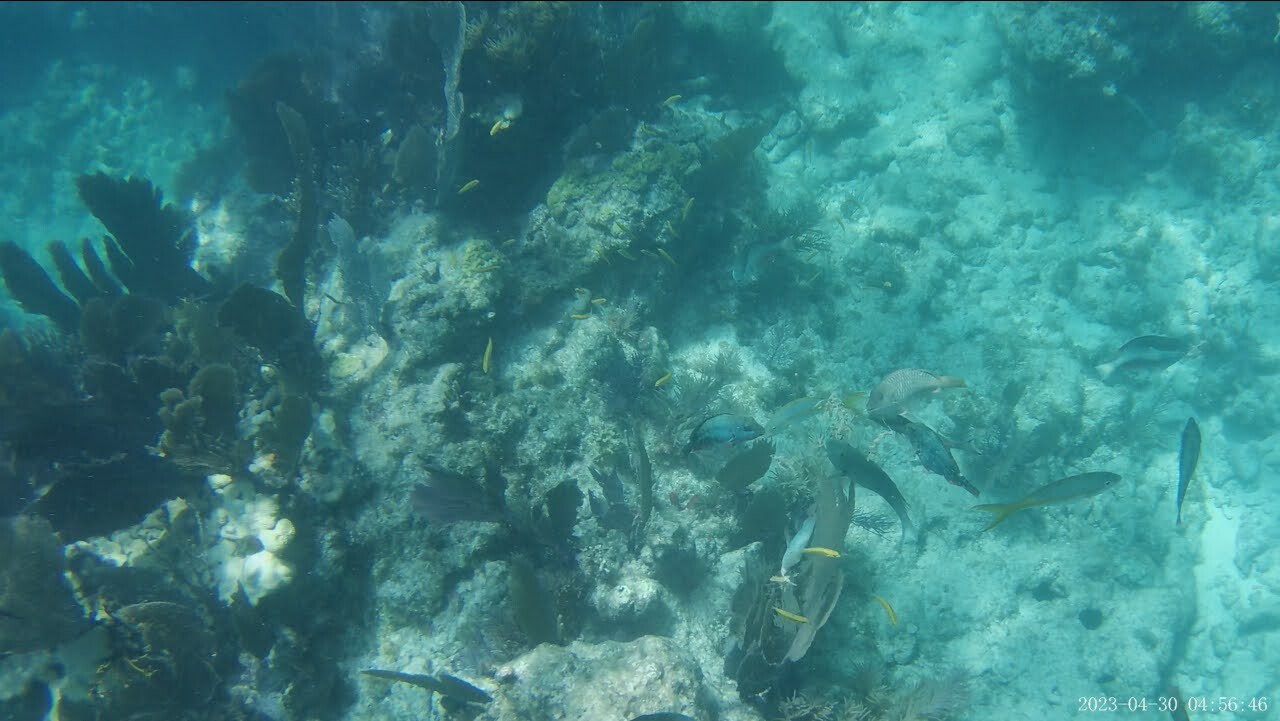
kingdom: Animalia
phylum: Chordata
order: Perciformes
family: Lutjanidae
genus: Ocyurus
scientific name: Ocyurus chrysurus
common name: Yellowtail snapper
